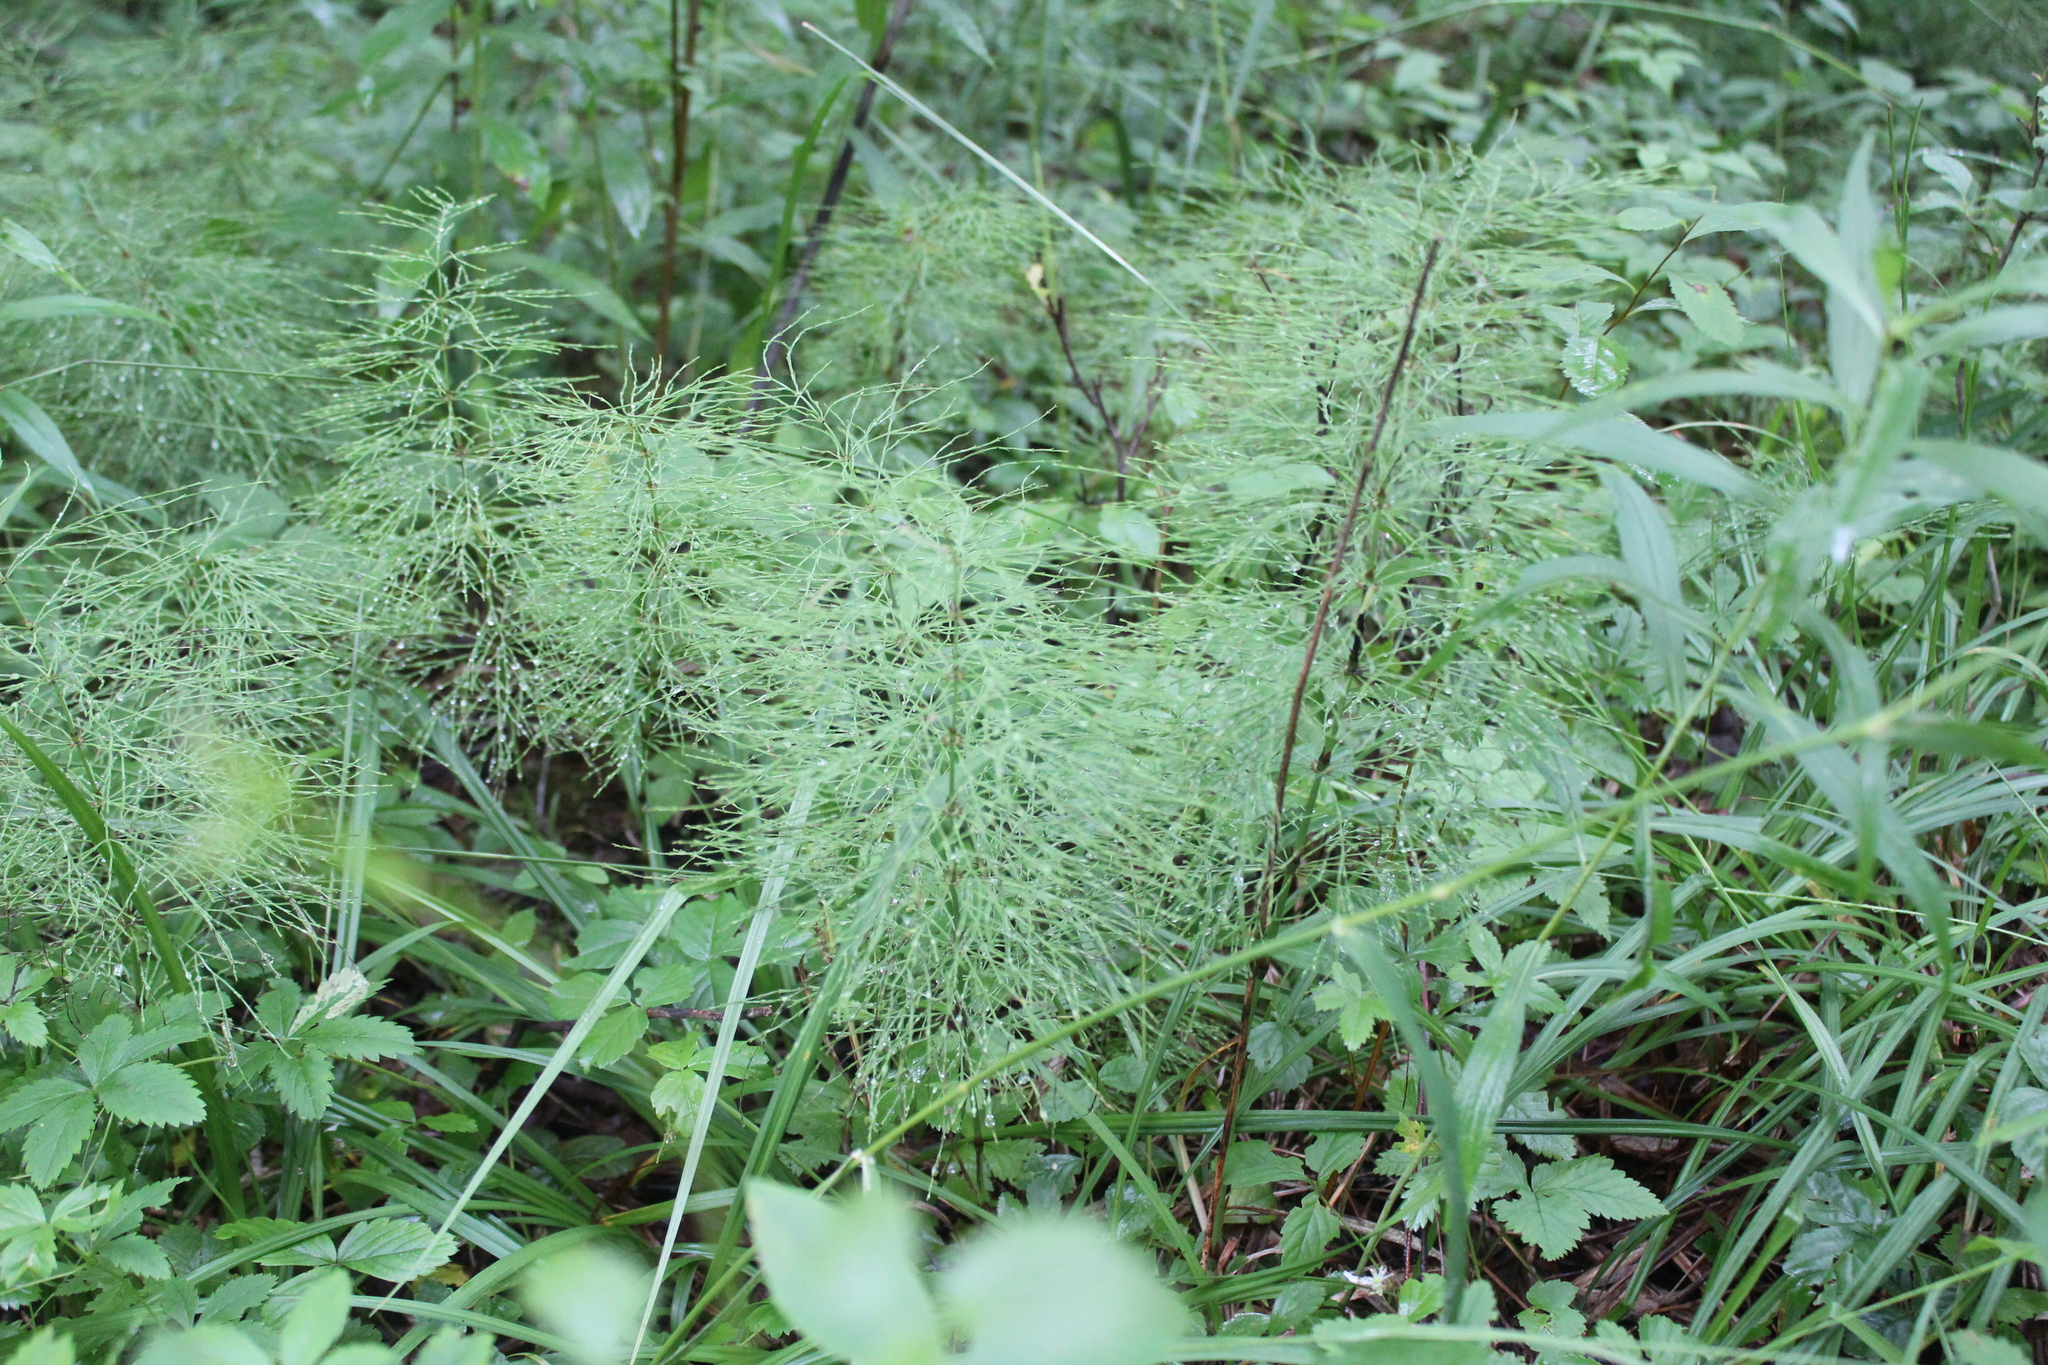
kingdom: Plantae
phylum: Tracheophyta
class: Polypodiopsida
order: Equisetales
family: Equisetaceae
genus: Equisetum
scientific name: Equisetum sylvaticum
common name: Wood horsetail
